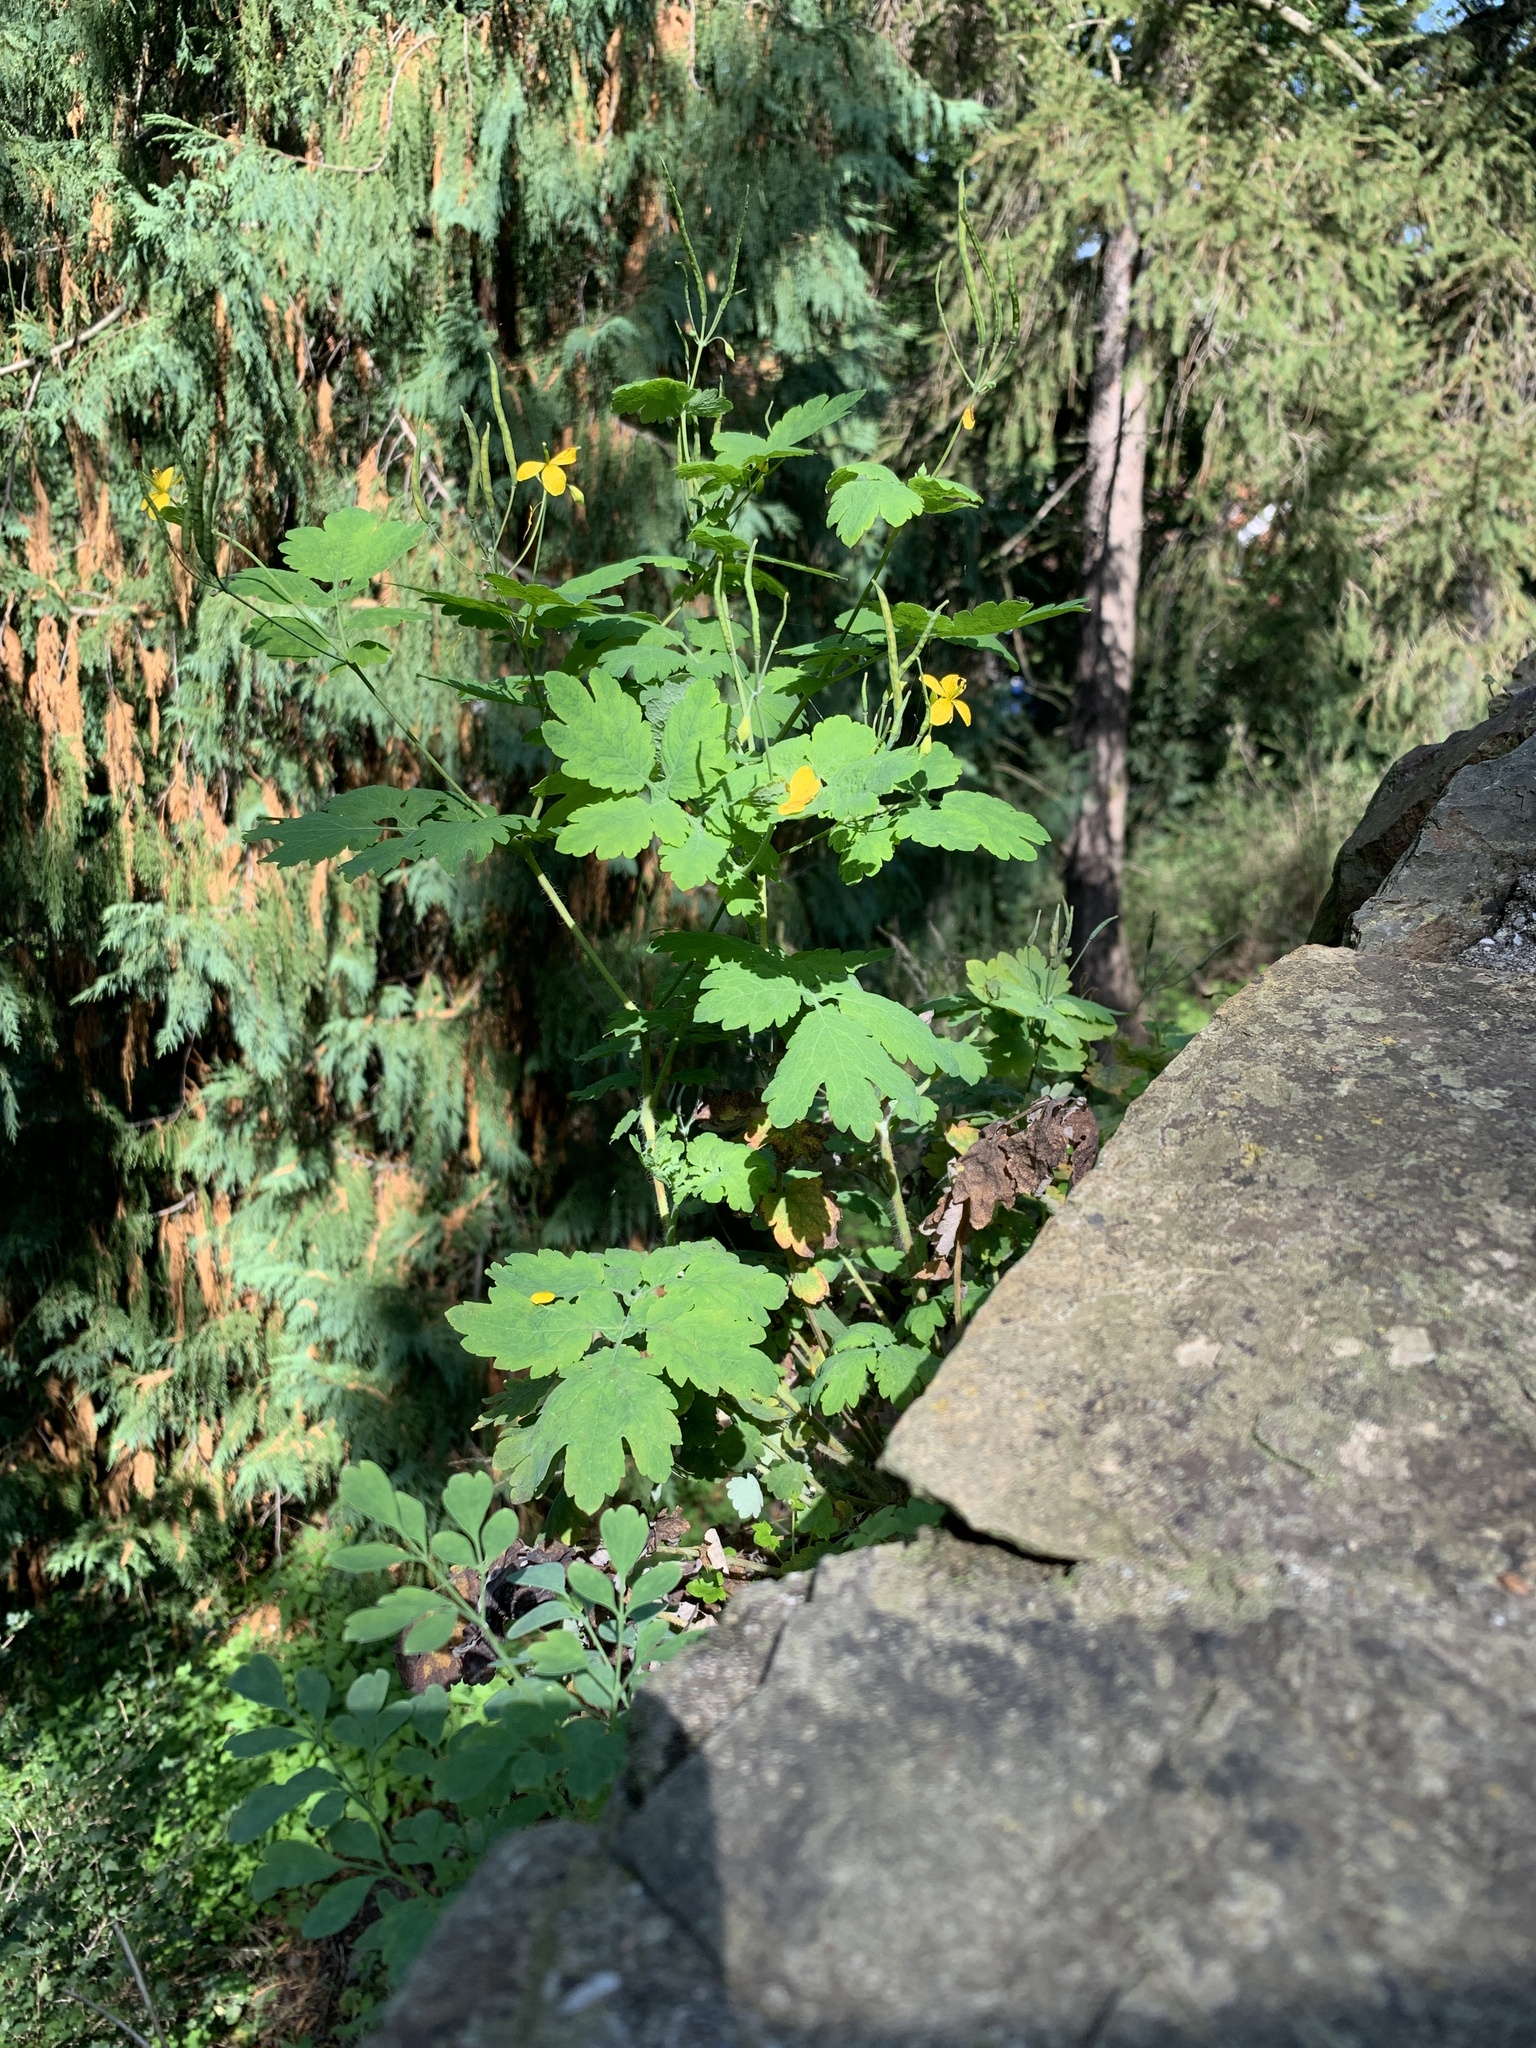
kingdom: Plantae
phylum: Tracheophyta
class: Magnoliopsida
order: Ranunculales
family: Papaveraceae
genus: Chelidonium
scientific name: Chelidonium majus
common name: Greater celandine
